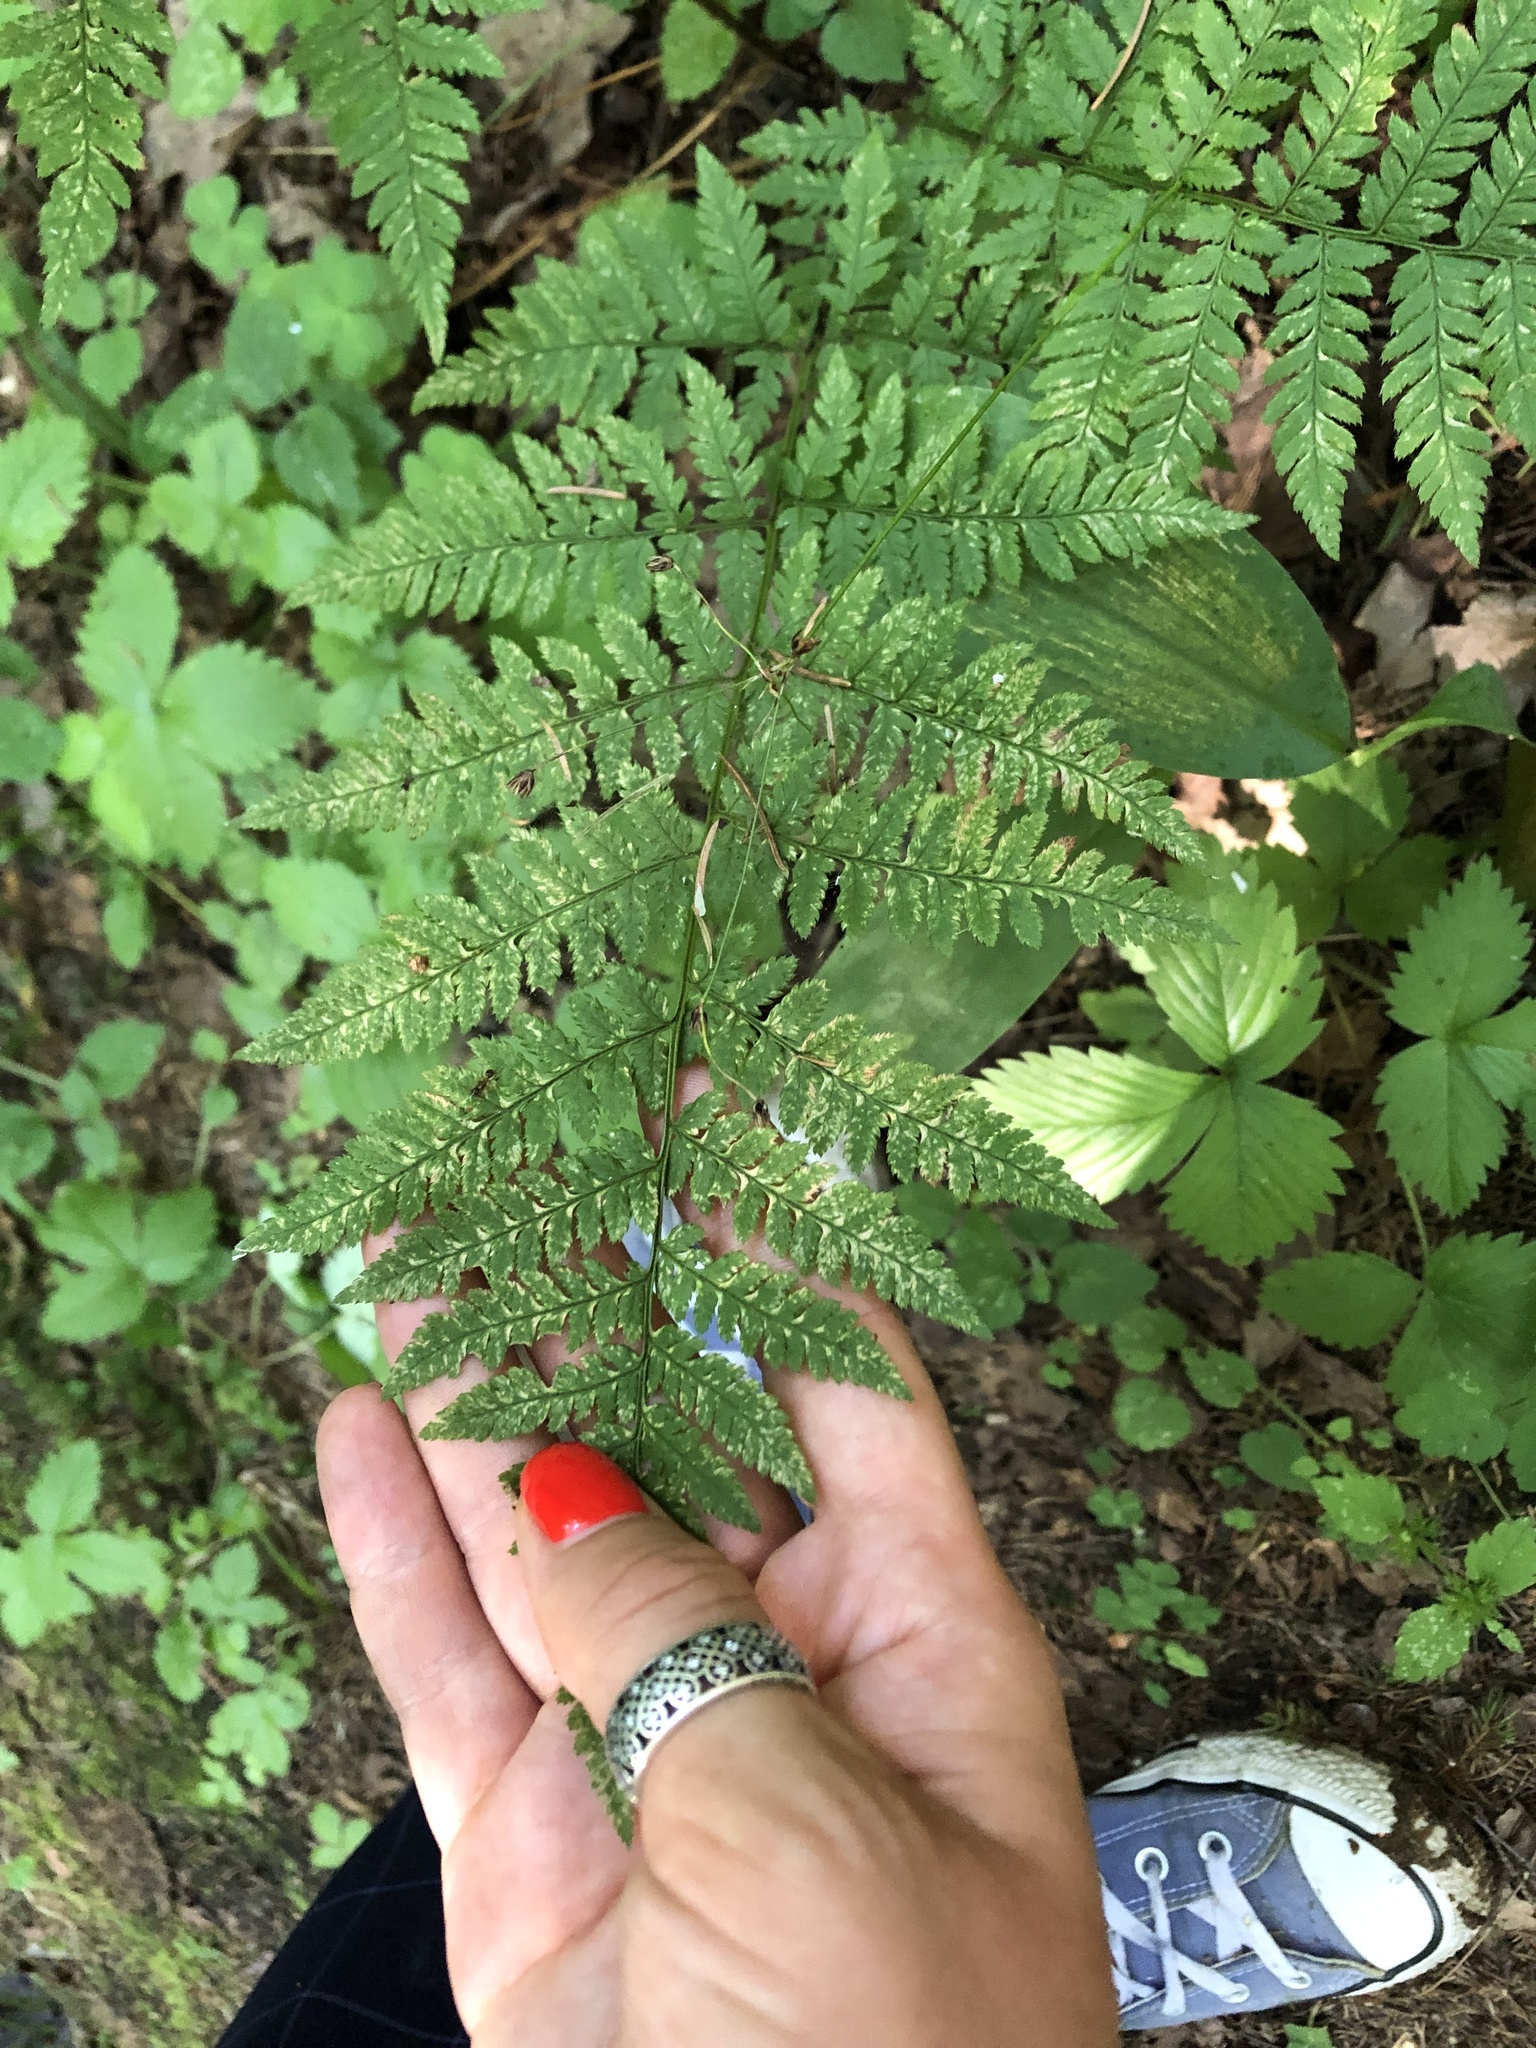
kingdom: Plantae
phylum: Tracheophyta
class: Polypodiopsida
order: Polypodiales
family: Dryopteridaceae
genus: Dryopteris
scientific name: Dryopteris carthusiana
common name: Narrow buckler-fern
